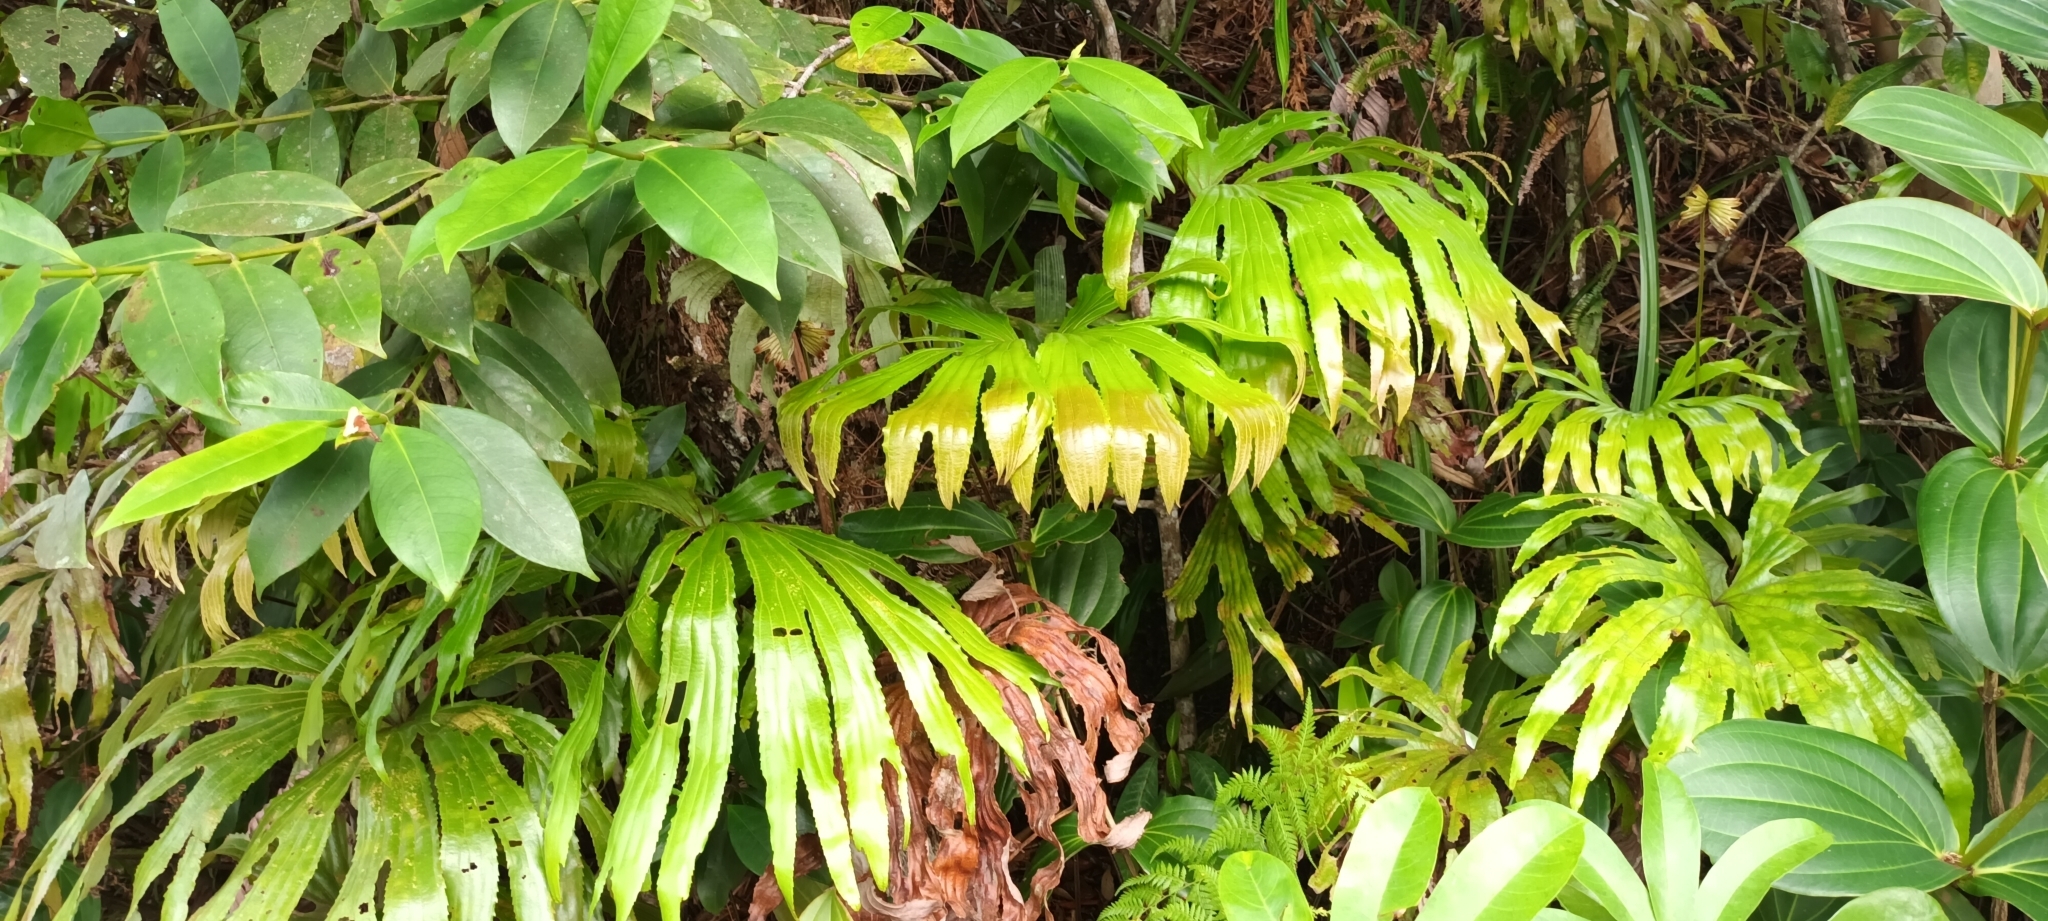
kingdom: Plantae
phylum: Tracheophyta
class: Polypodiopsida
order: Gleicheniales
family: Dipteridaceae
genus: Dipteris
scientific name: Dipteris conjugata
